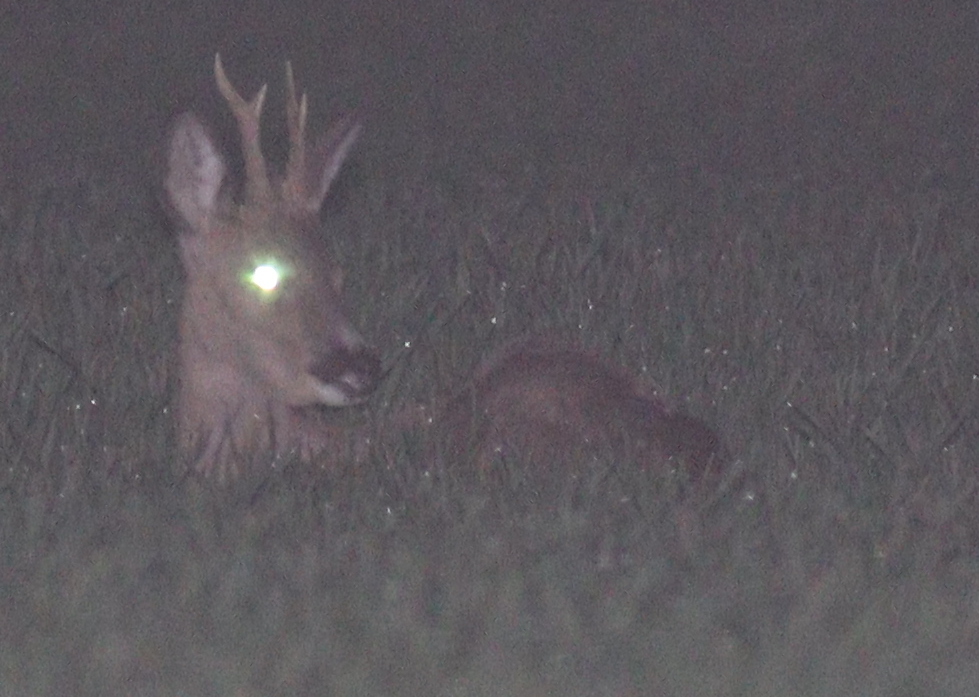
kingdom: Animalia
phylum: Chordata
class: Mammalia
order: Artiodactyla
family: Cervidae
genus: Capreolus
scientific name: Capreolus capreolus
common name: Western roe deer
